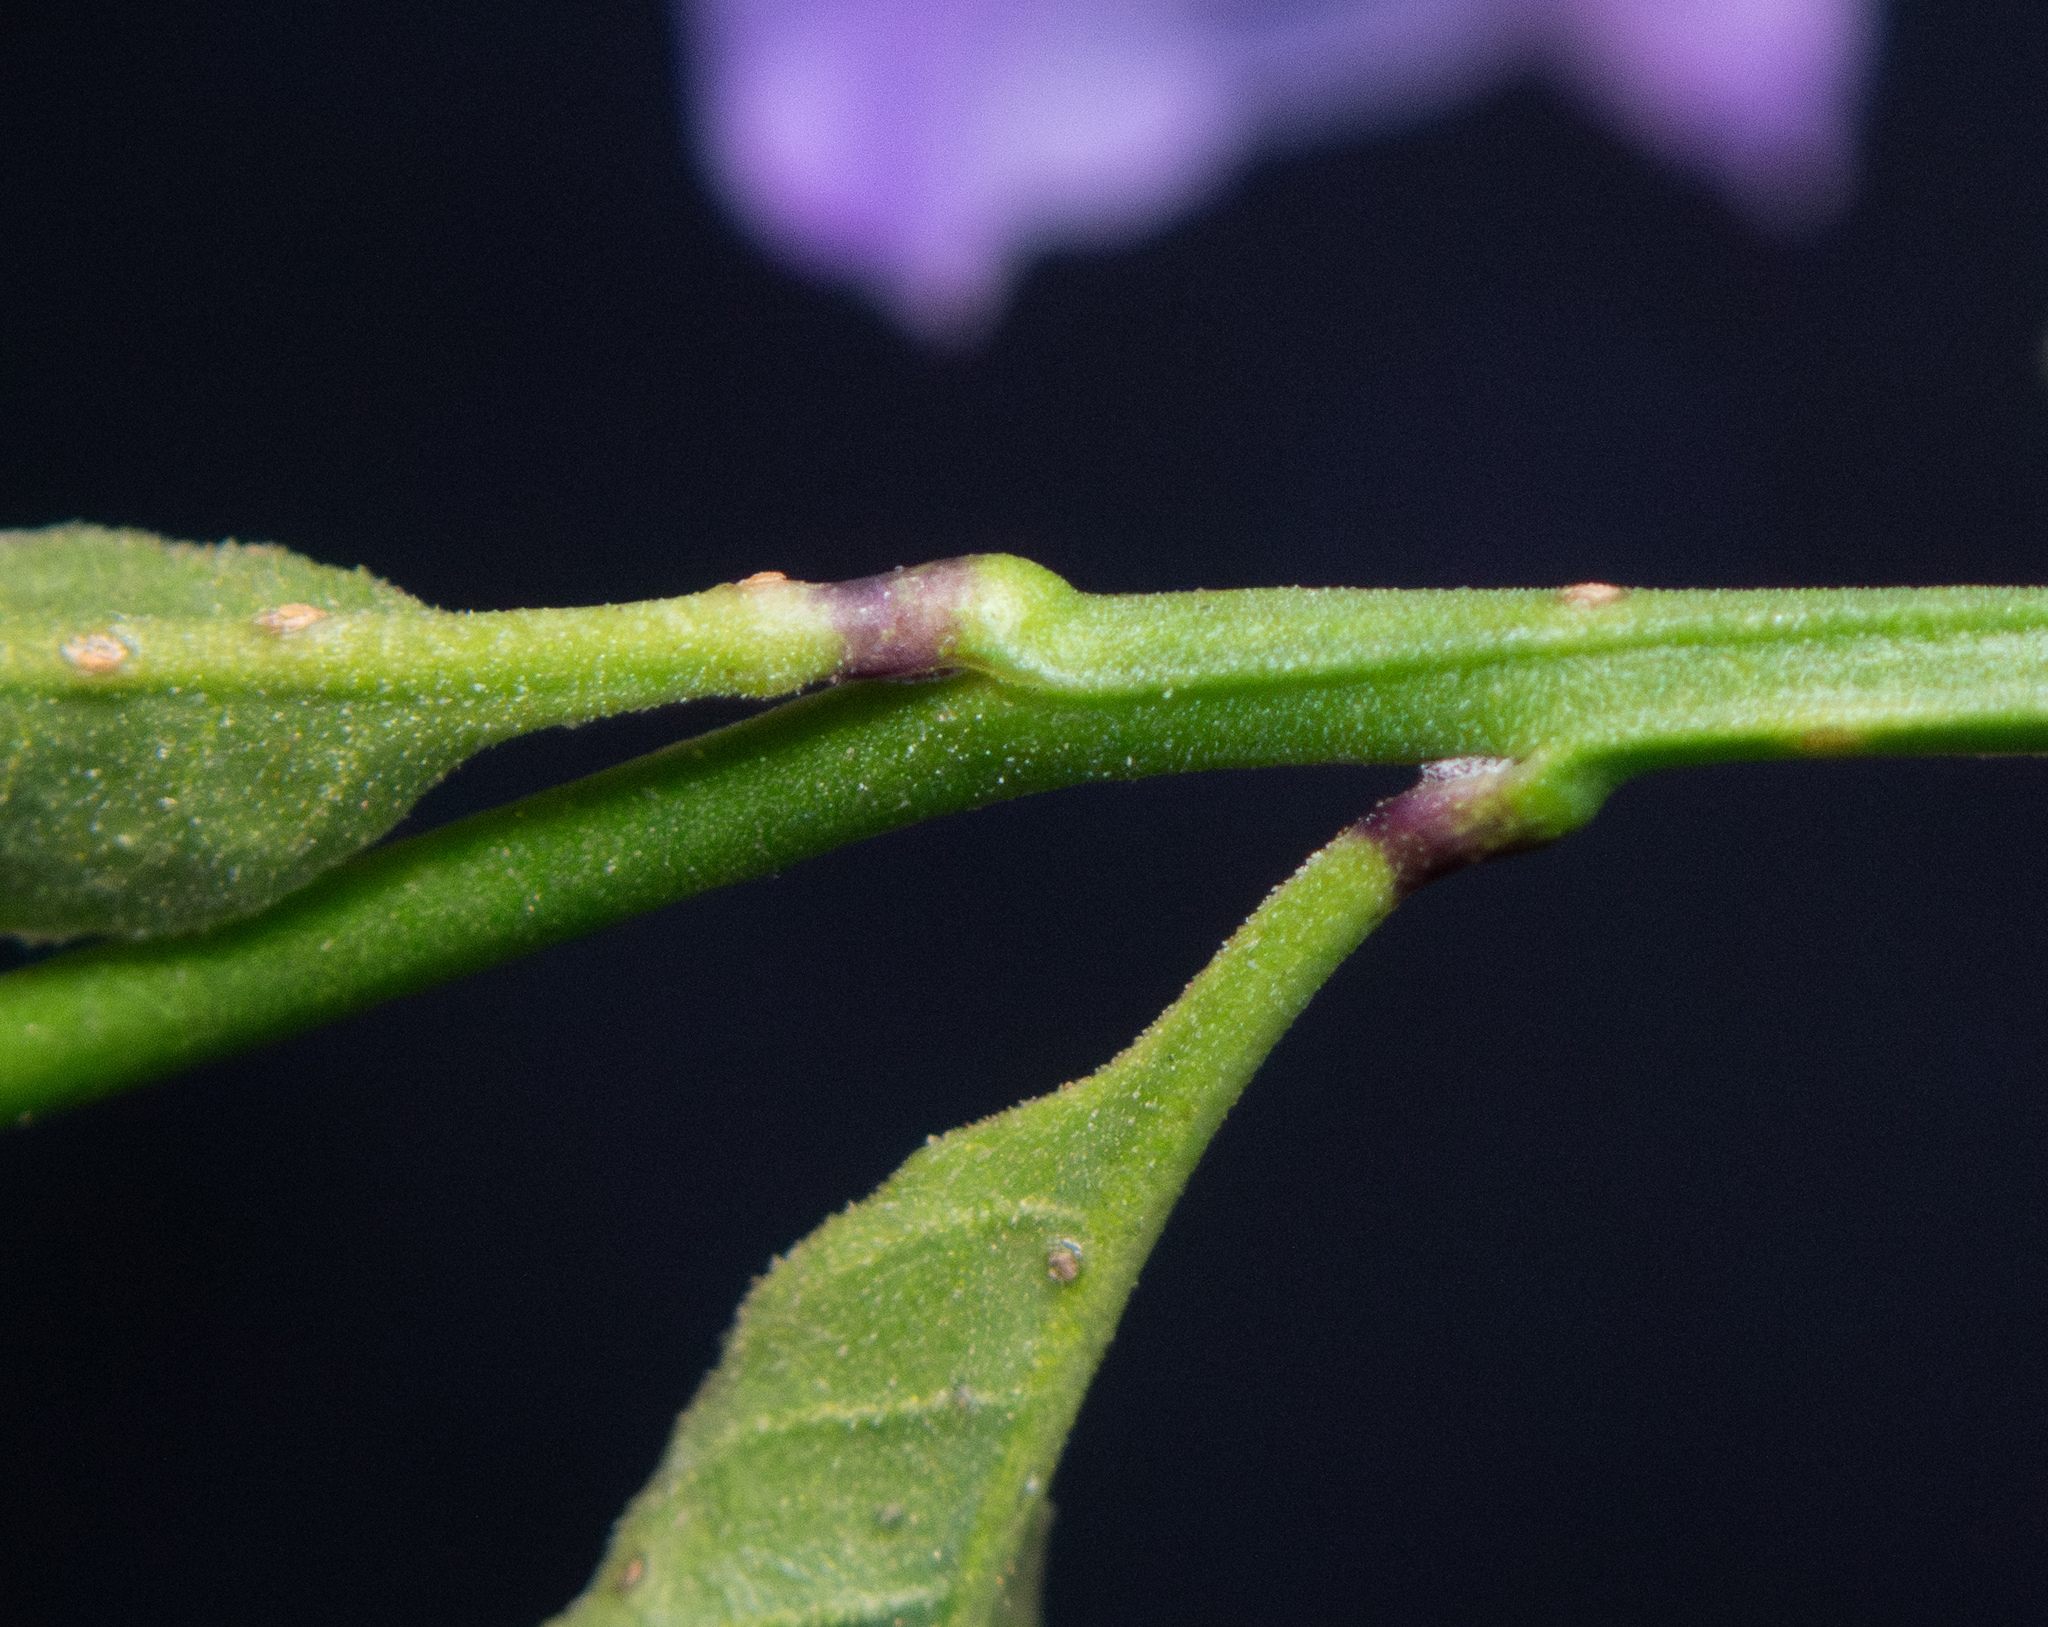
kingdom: Plantae
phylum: Tracheophyta
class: Magnoliopsida
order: Solanales
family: Solanaceae
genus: Solanum
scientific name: Solanum umbelliferum
